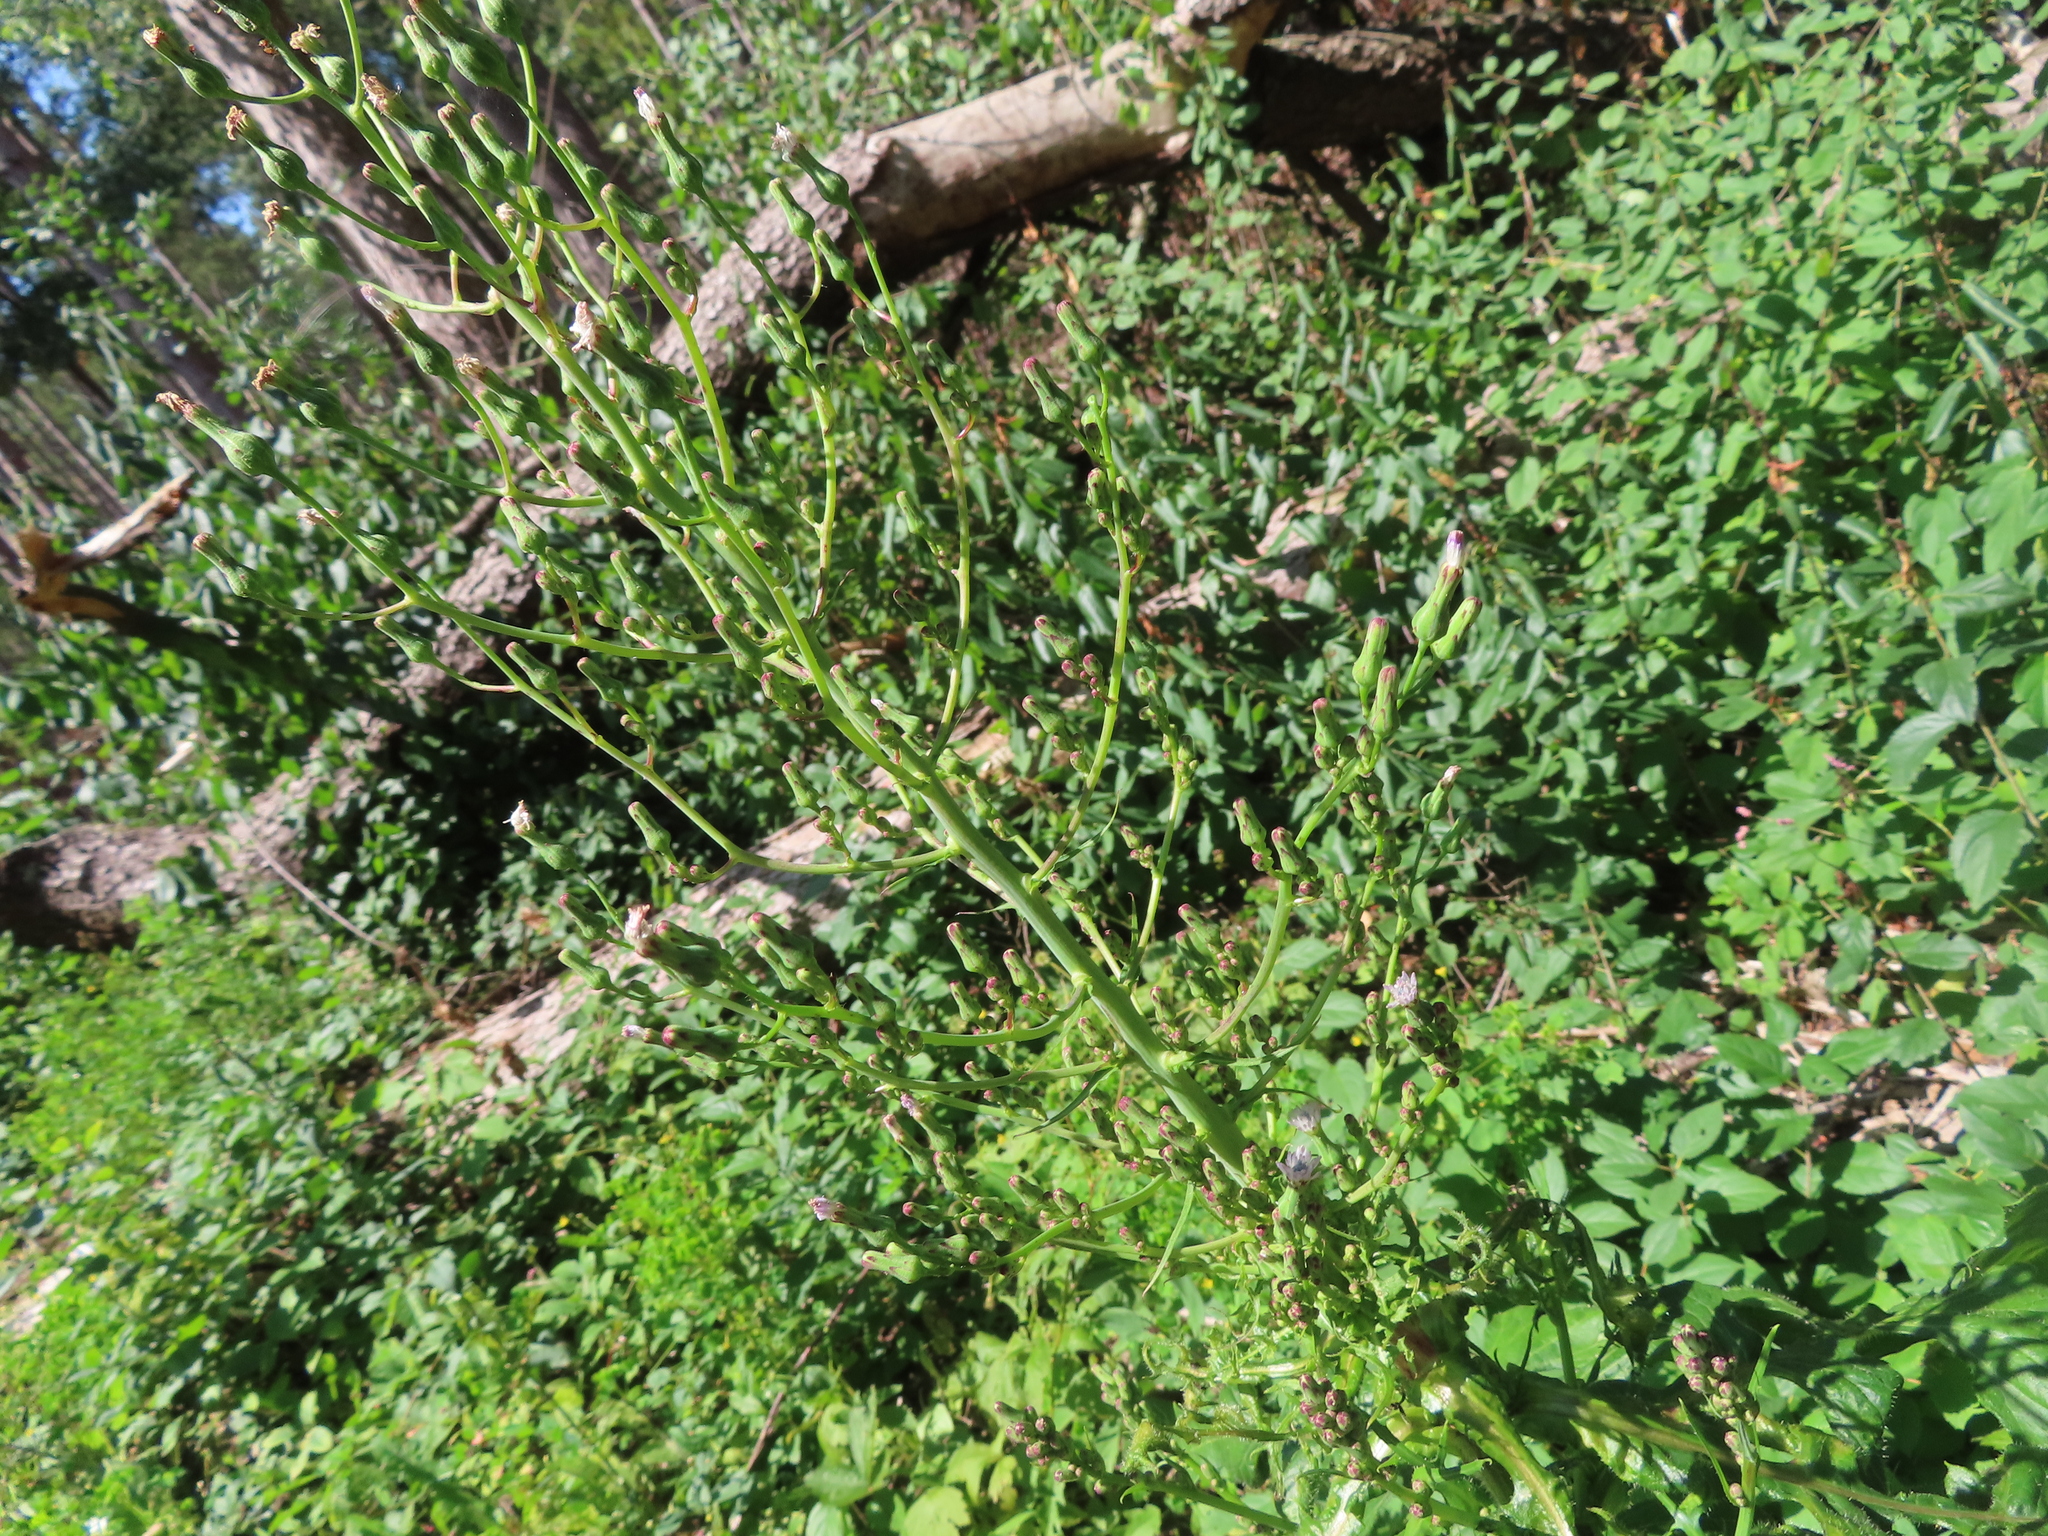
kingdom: Plantae
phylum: Tracheophyta
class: Magnoliopsida
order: Asterales
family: Asteraceae
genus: Lactuca
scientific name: Lactuca biennis
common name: Blue wood lettuce
